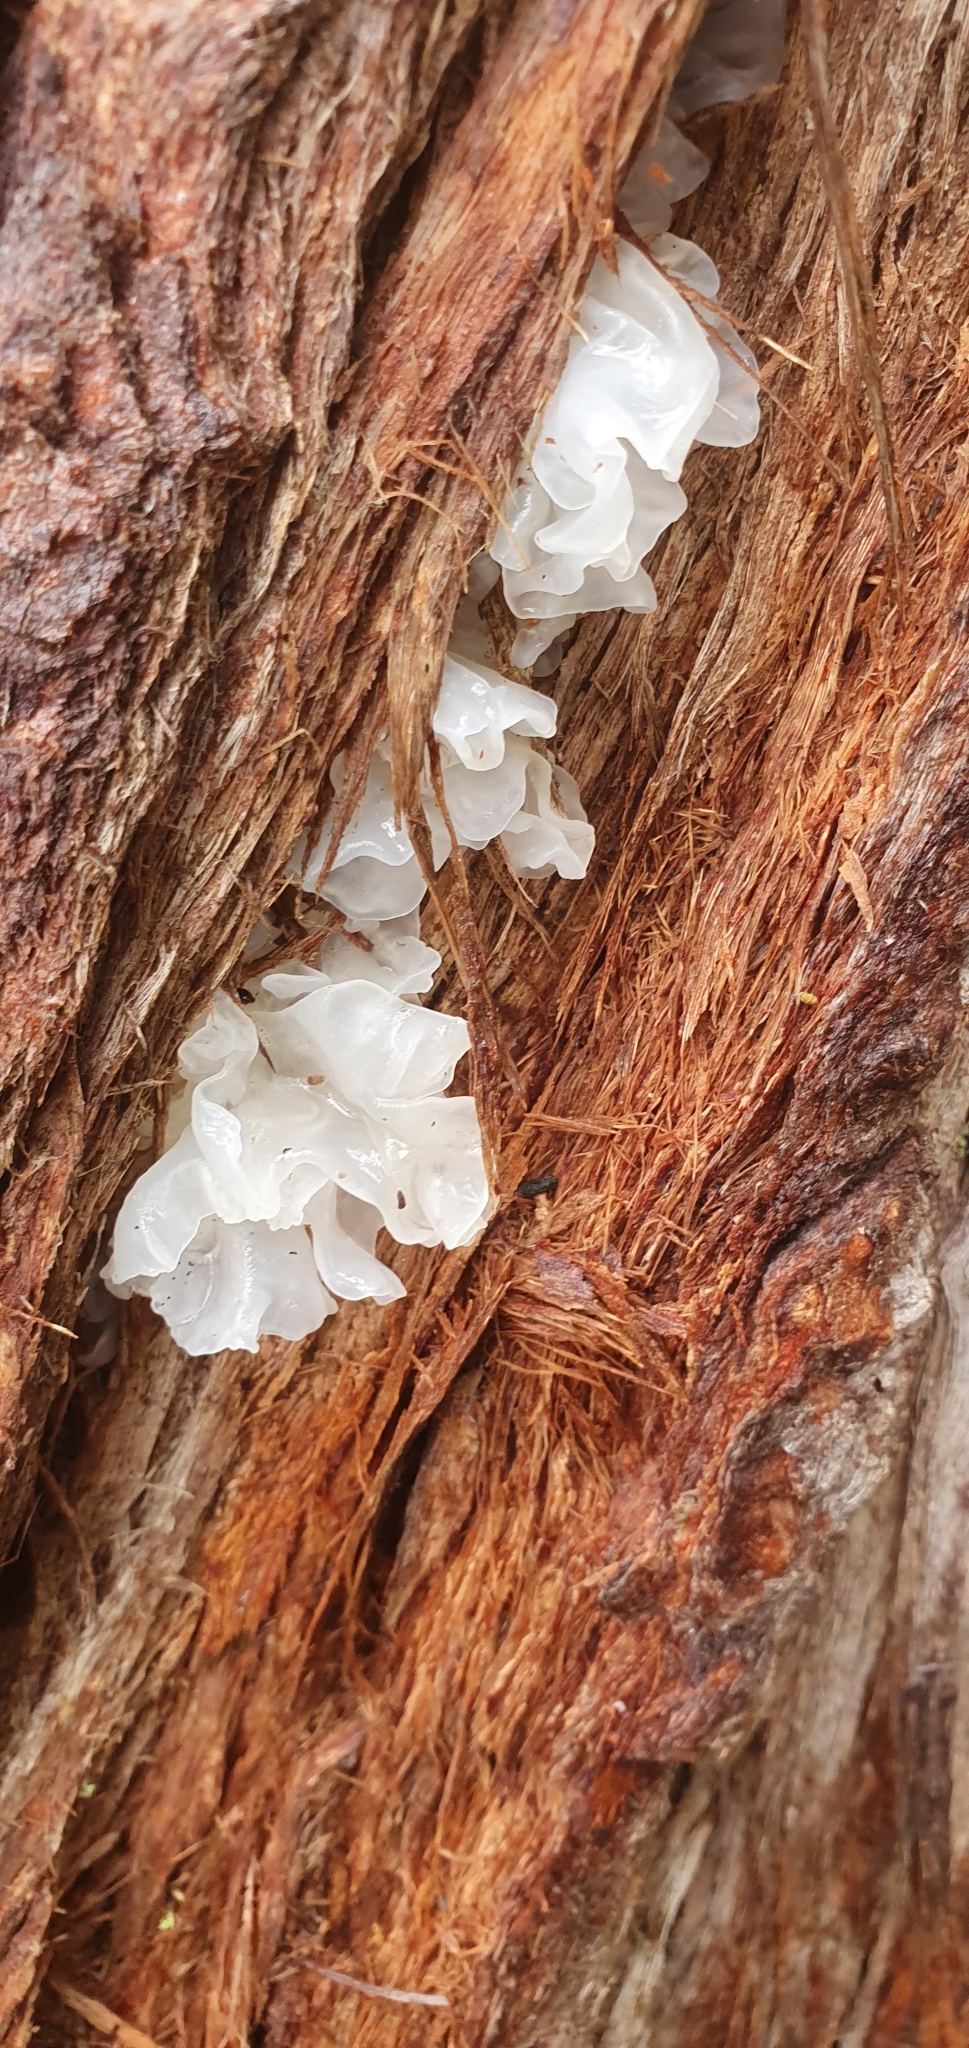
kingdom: Fungi
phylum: Basidiomycota
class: Tremellomycetes
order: Tremellales
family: Tremellaceae
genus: Tremella
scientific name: Tremella fuciformis
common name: Snow fungus
